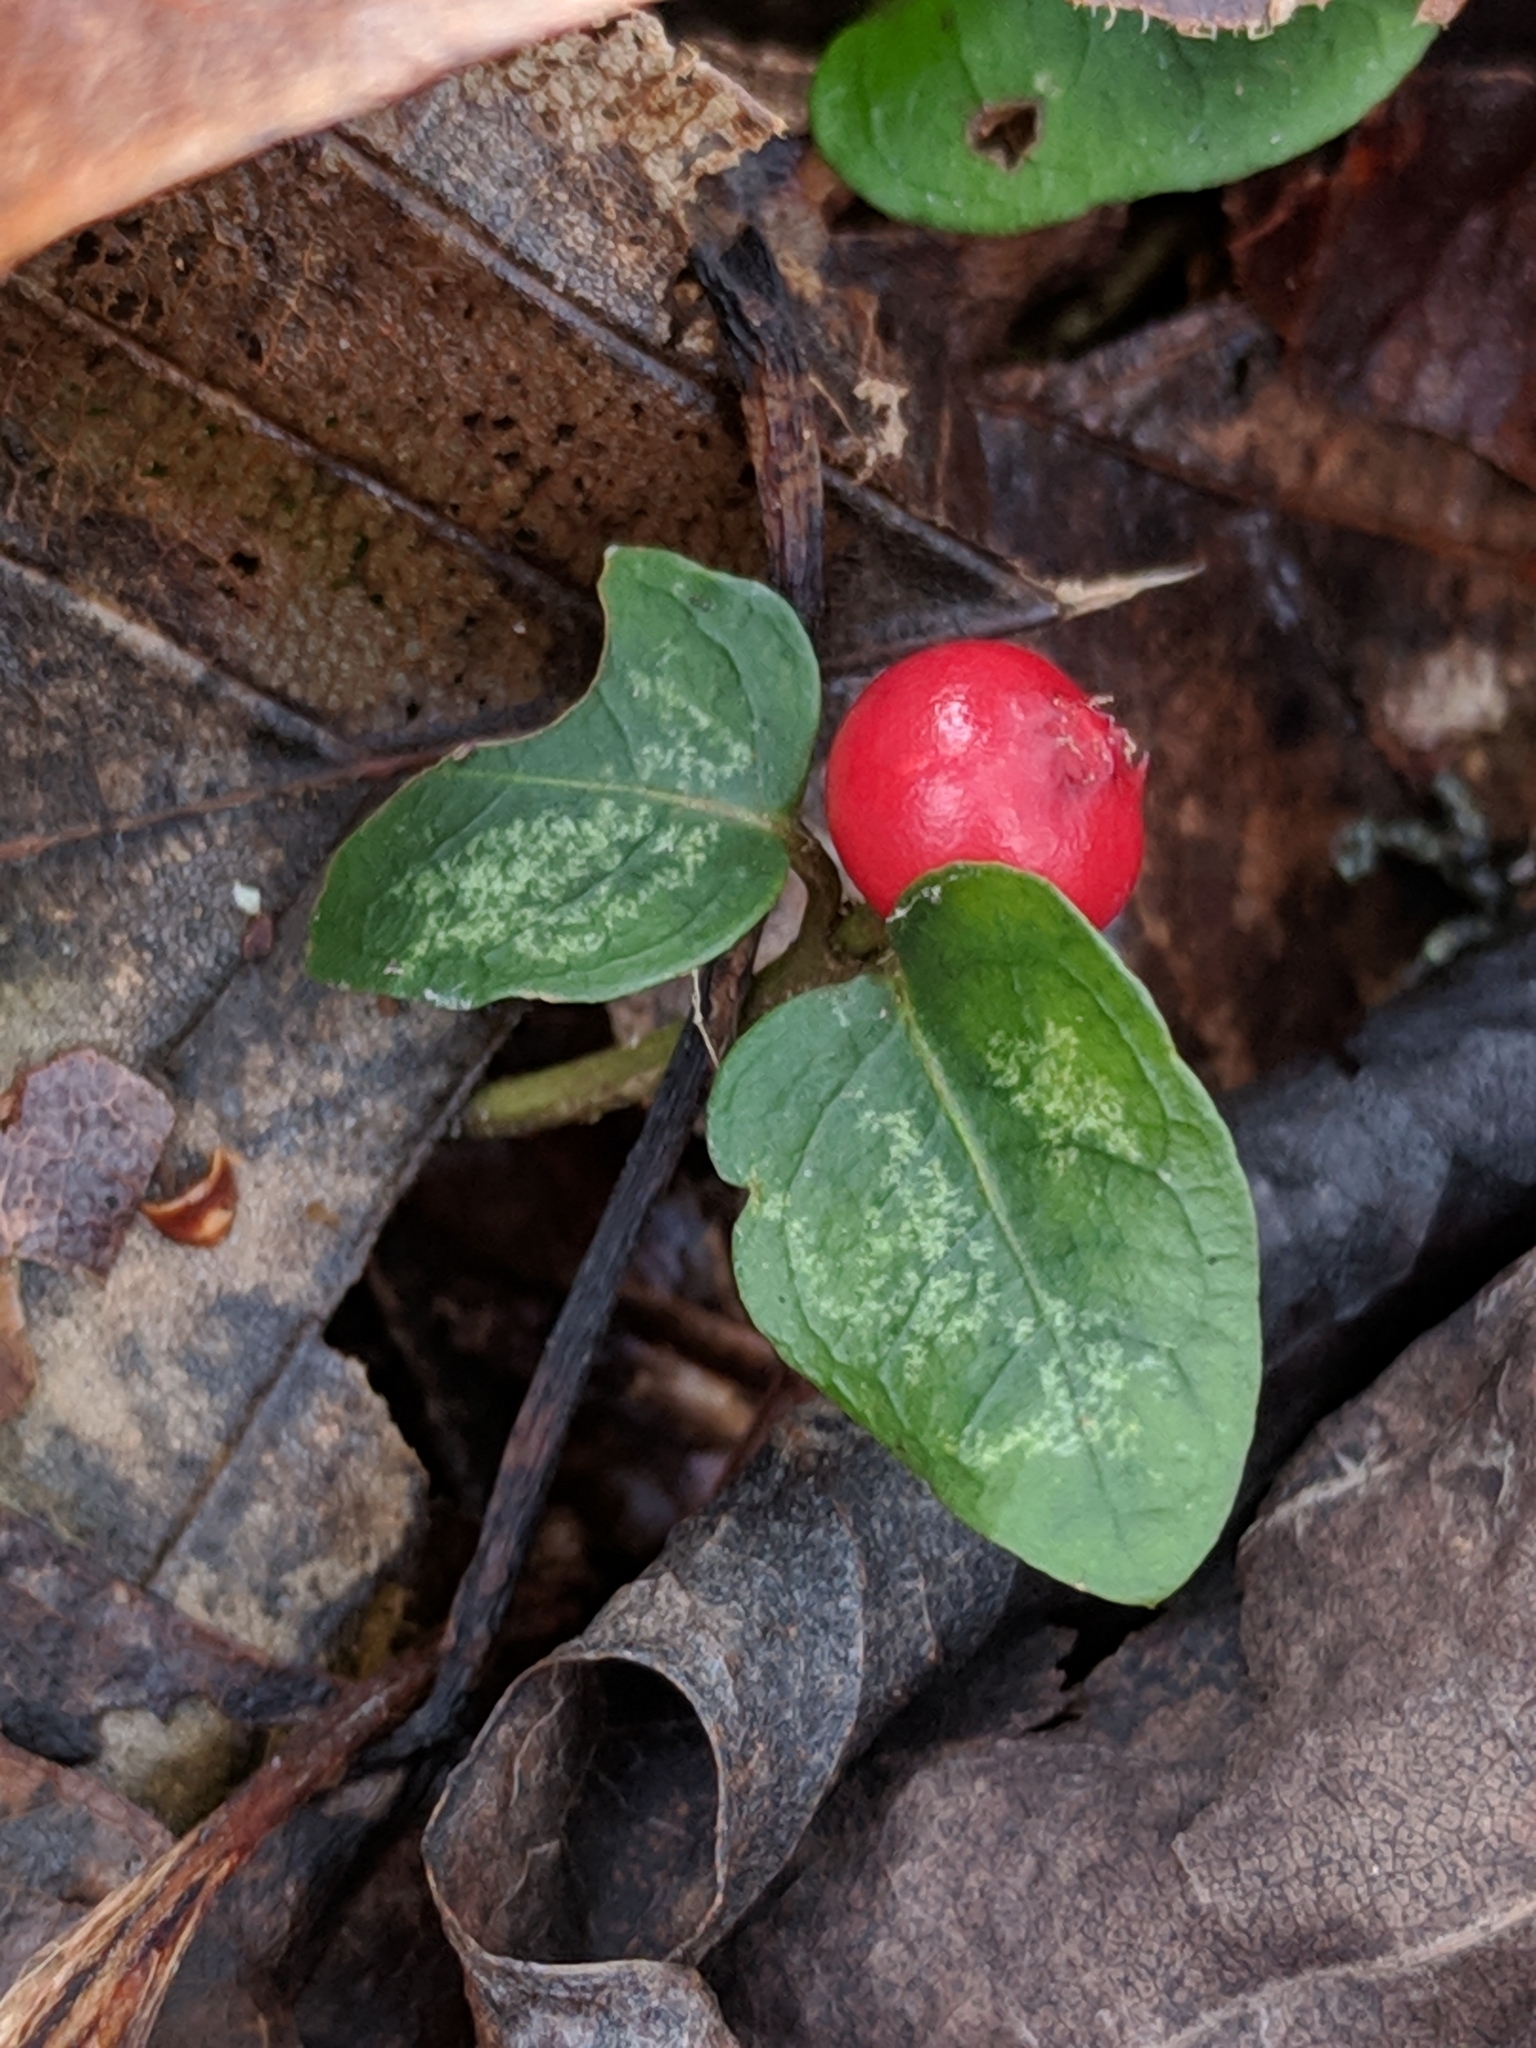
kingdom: Plantae
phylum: Tracheophyta
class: Magnoliopsida
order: Gentianales
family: Rubiaceae
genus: Mitchella
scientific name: Mitchella repens
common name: Partridge-berry
